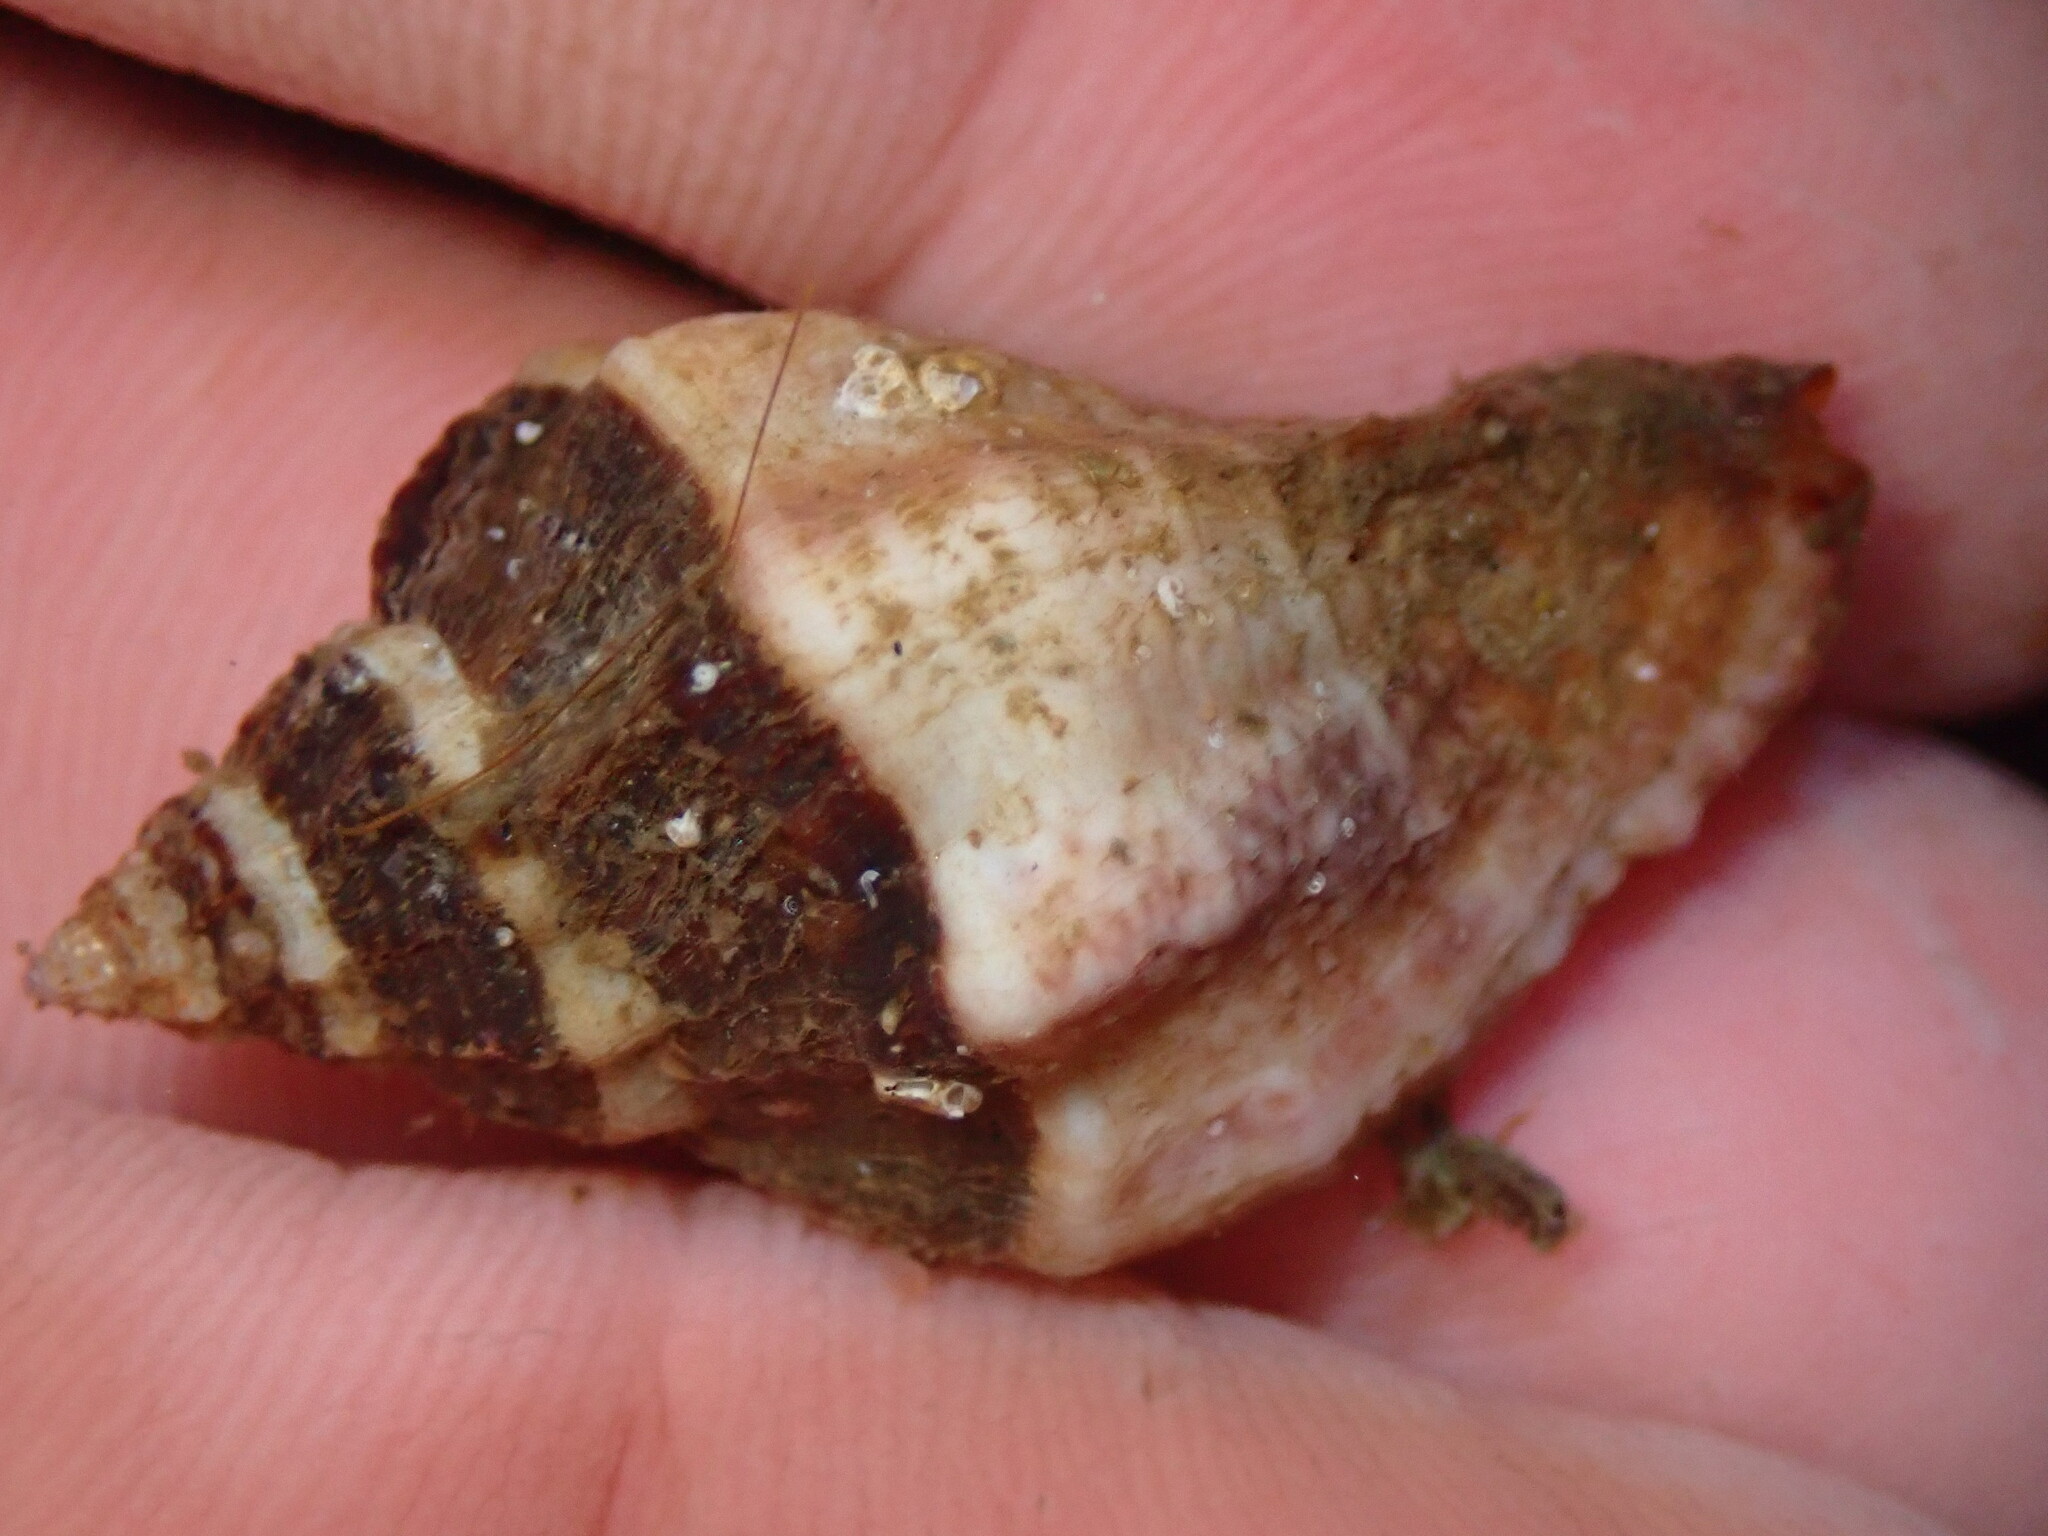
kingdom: Animalia
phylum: Mollusca
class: Gastropoda
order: Neogastropoda
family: Muricidae
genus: Ceratostoma
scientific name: Ceratostoma nuttalli
